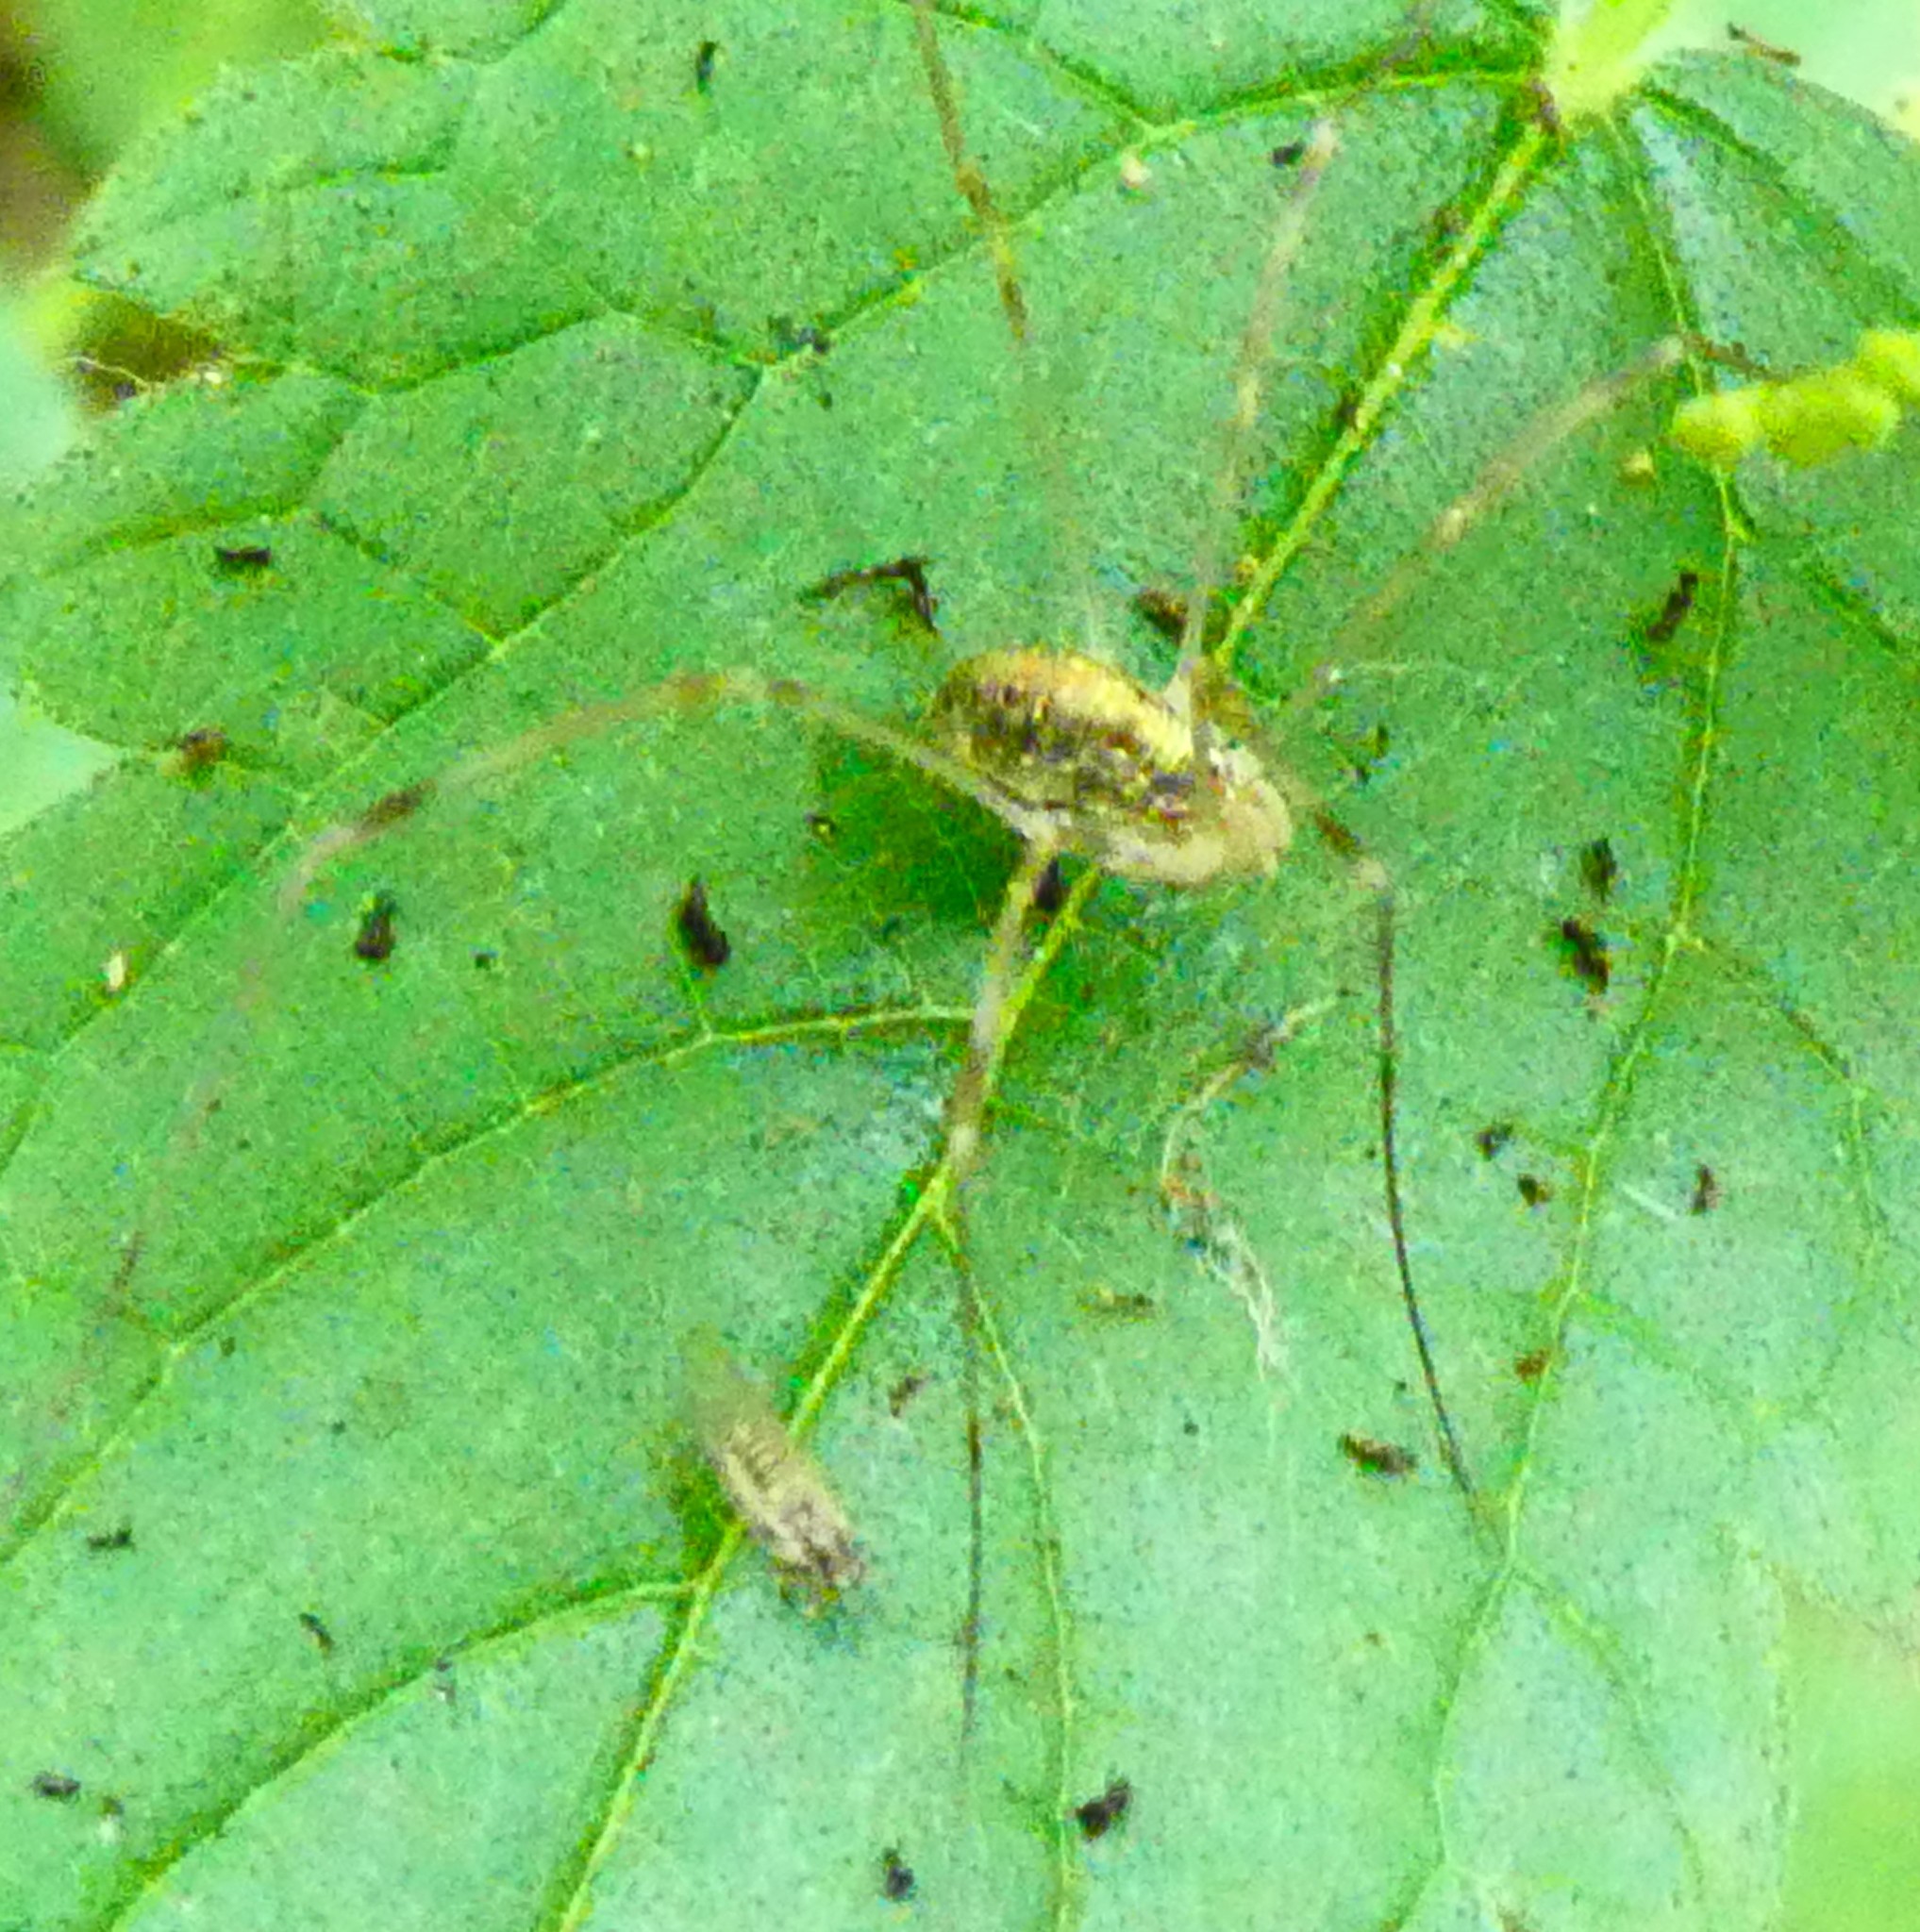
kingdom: Animalia
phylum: Arthropoda
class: Arachnida
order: Opiliones
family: Phalangiidae
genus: Opilio
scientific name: Opilio canestrinii
